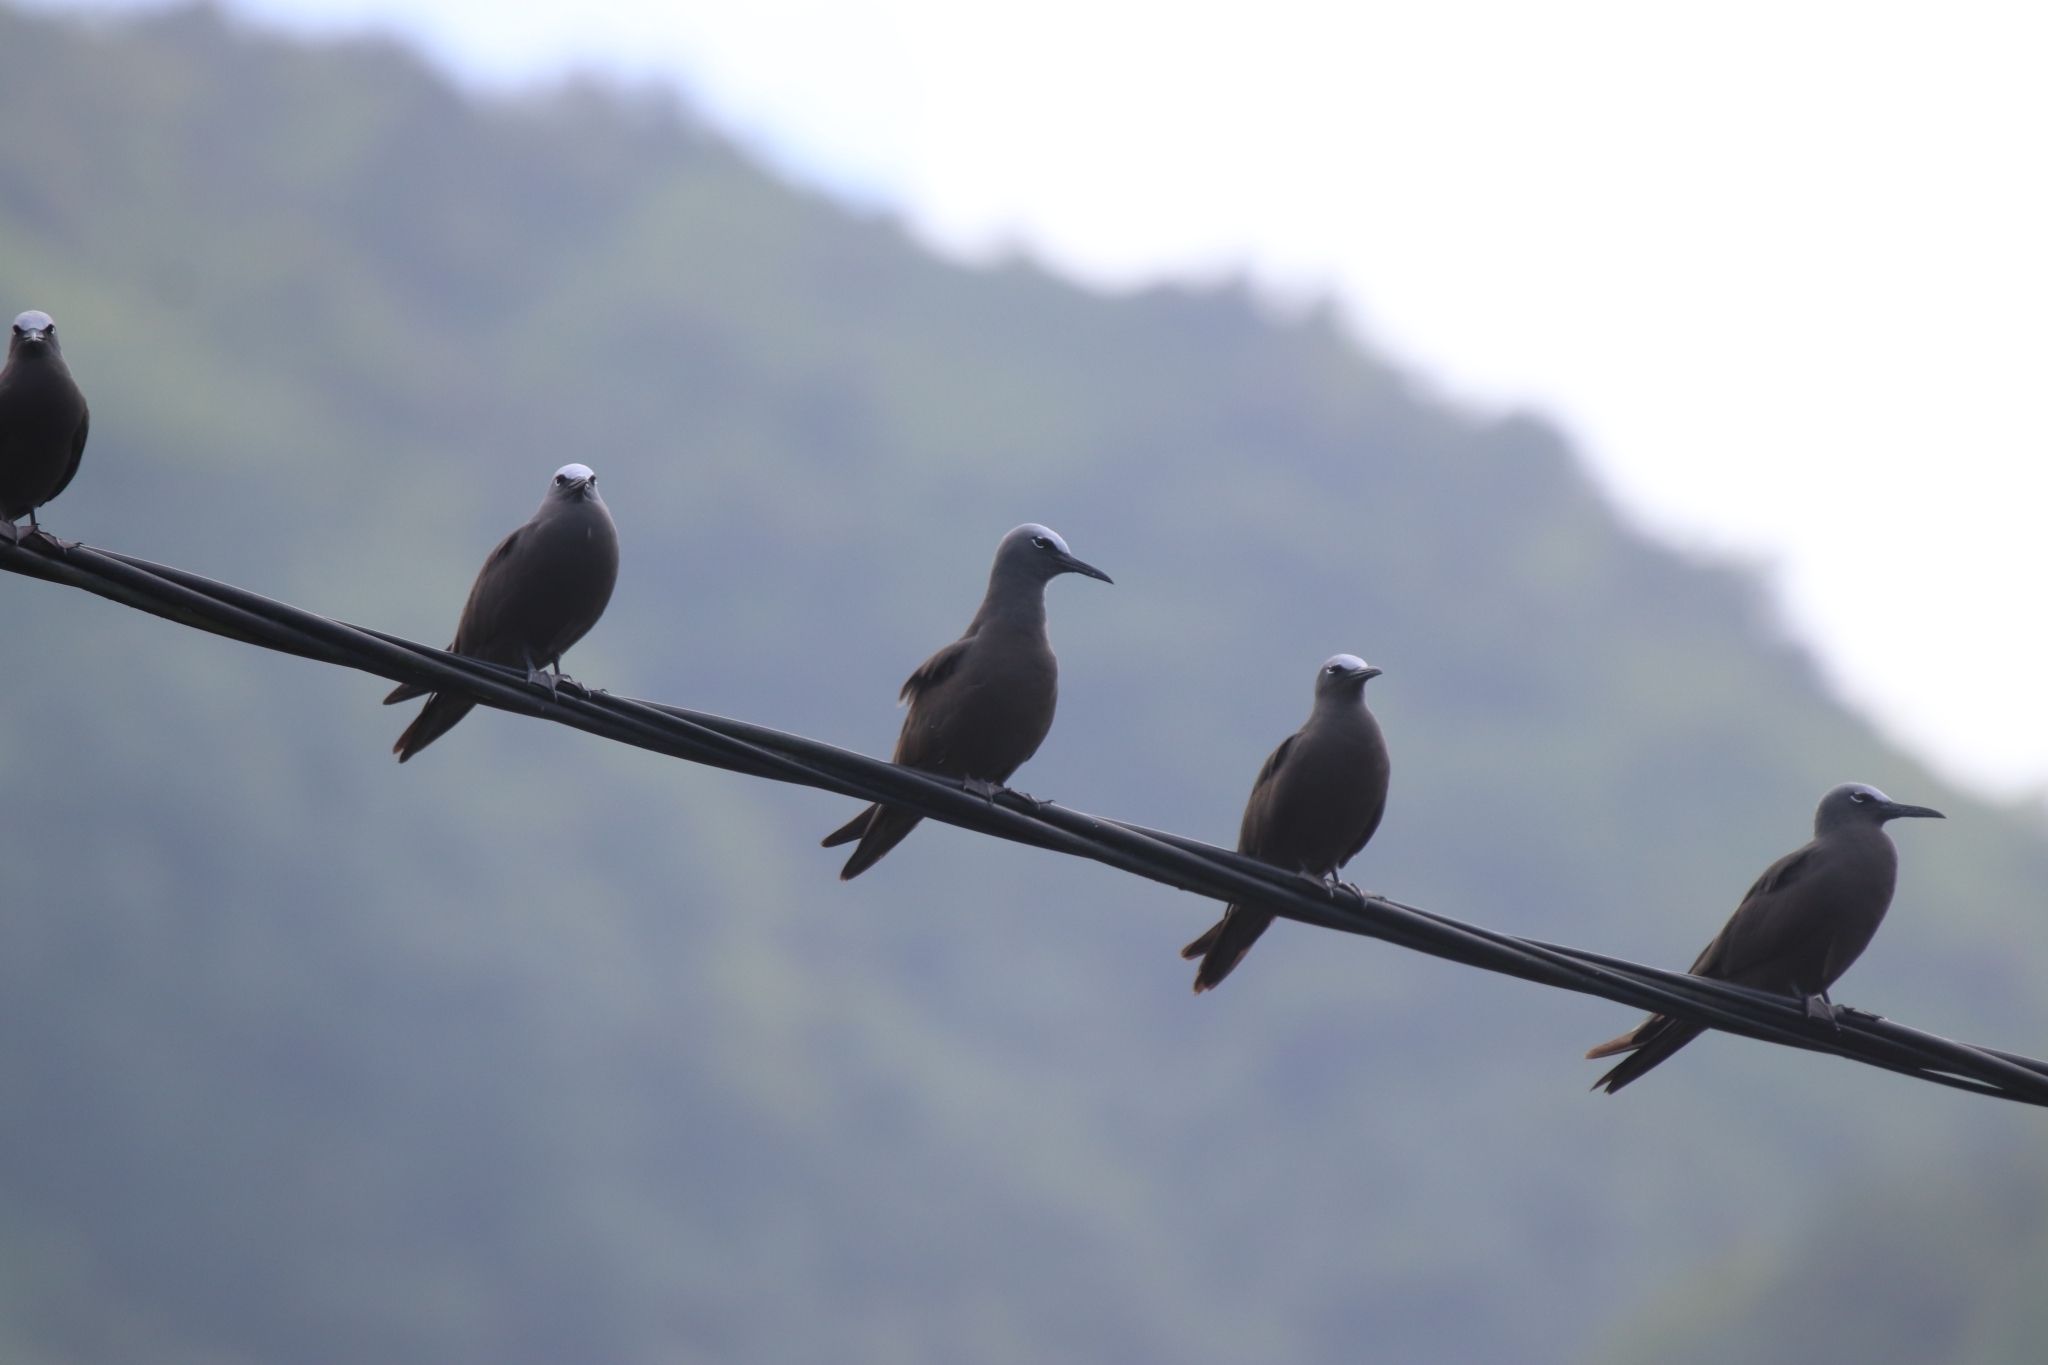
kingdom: Animalia
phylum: Chordata
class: Aves
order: Charadriiformes
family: Laridae
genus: Anous
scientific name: Anous stolidus
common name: Brown noddy
